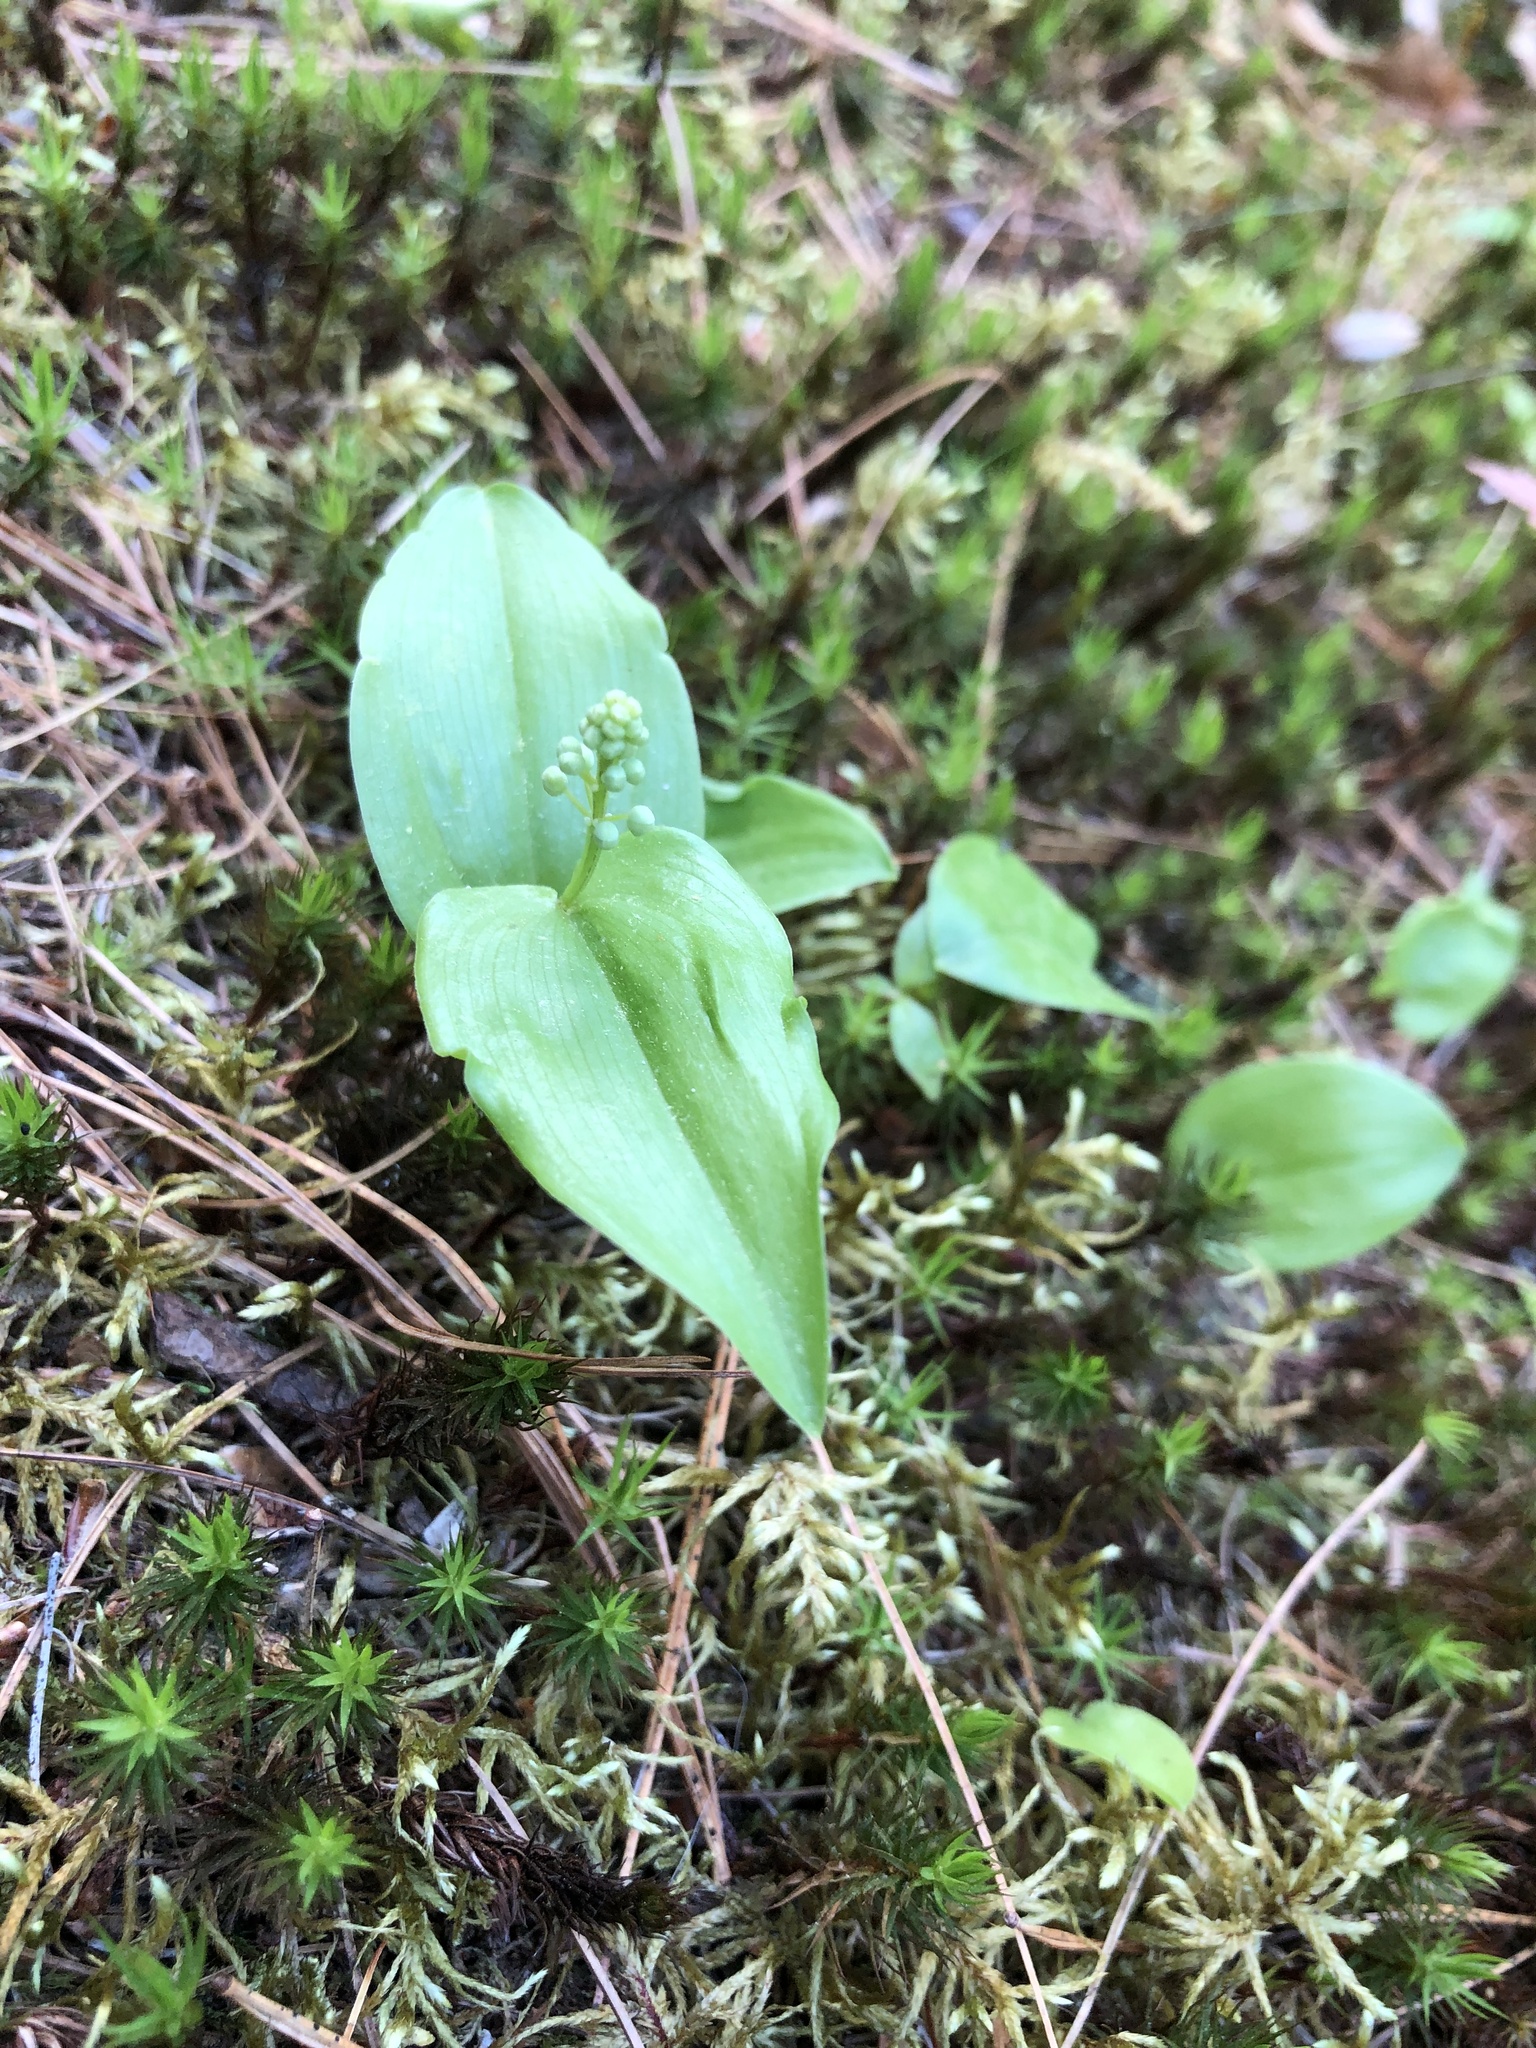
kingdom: Plantae
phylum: Tracheophyta
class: Liliopsida
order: Asparagales
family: Asparagaceae
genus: Maianthemum
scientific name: Maianthemum canadense
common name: False lily-of-the-valley
